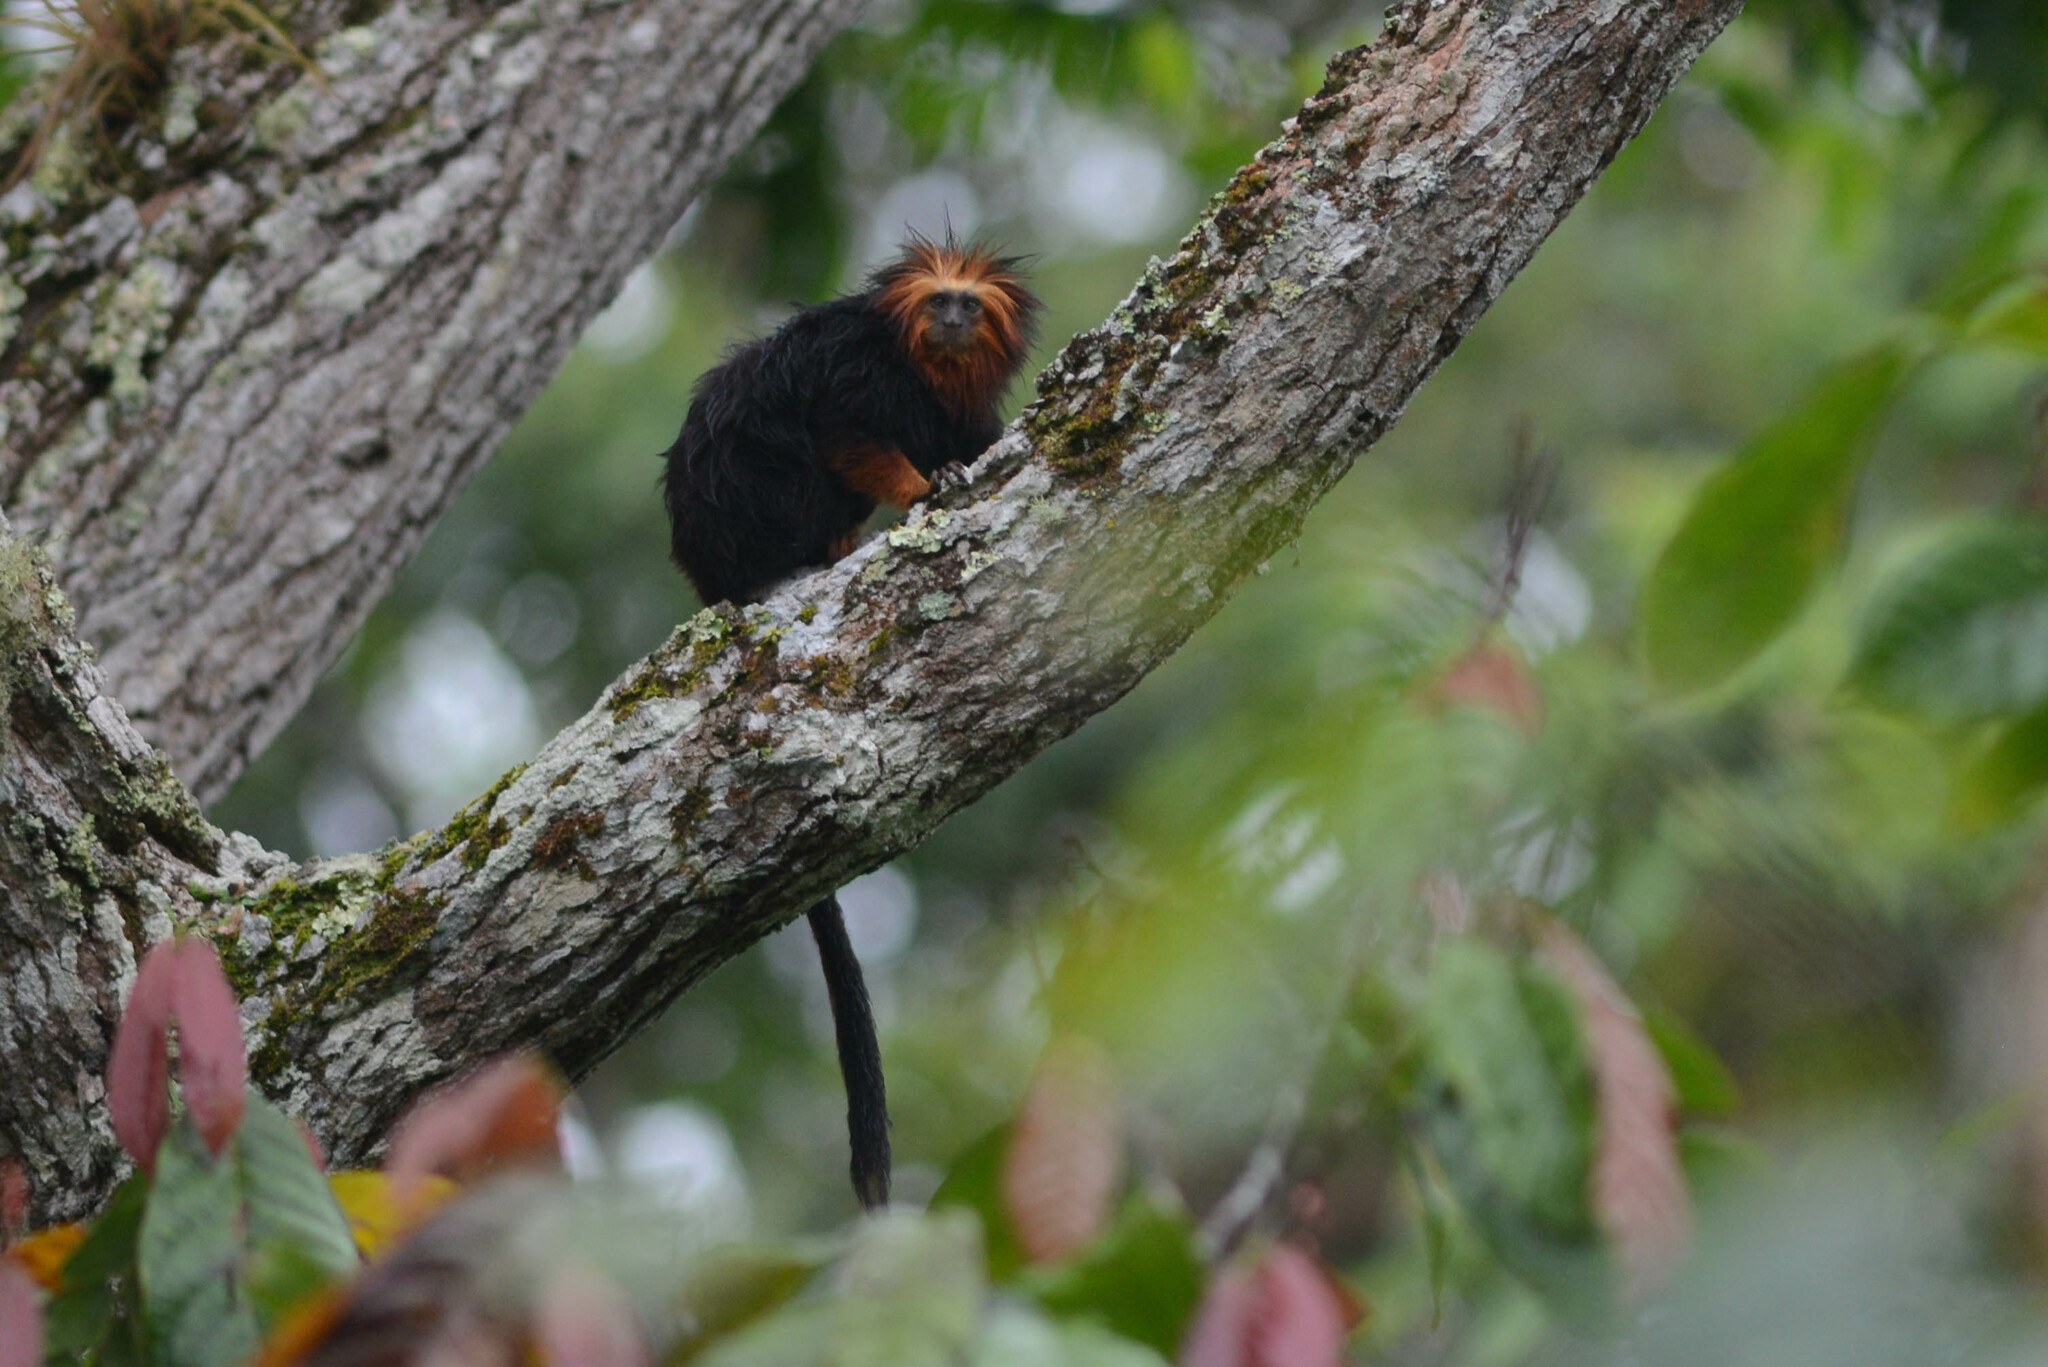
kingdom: Animalia
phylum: Chordata
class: Mammalia
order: Primates
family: Callitrichidae
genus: Leontopithecus
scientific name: Leontopithecus chrysomelas
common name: Golden-headed lion tamarin
